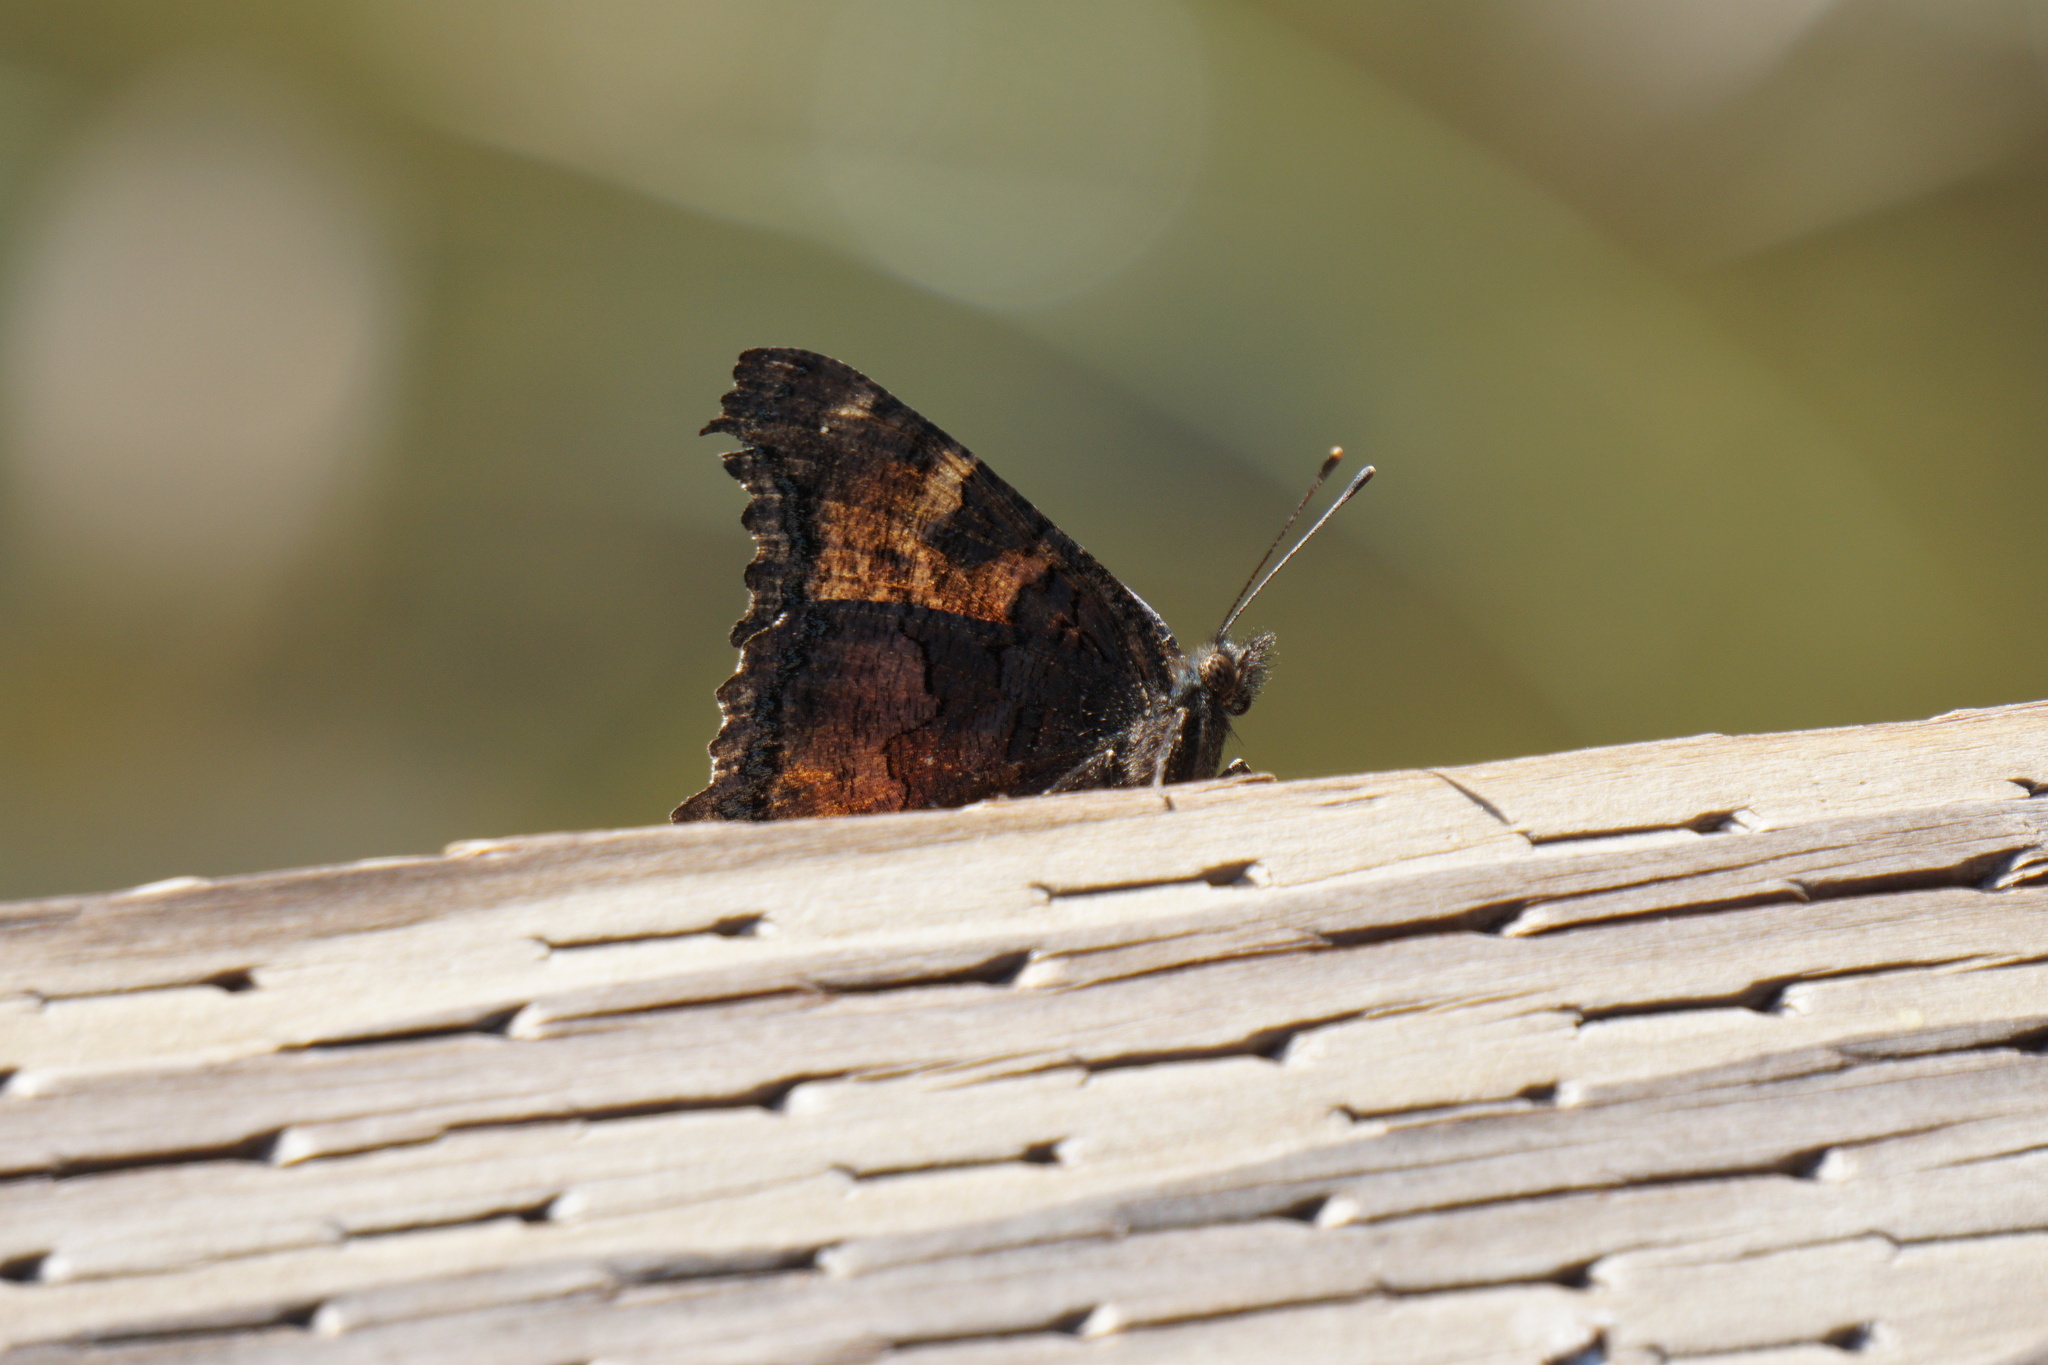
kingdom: Animalia
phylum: Arthropoda
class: Insecta
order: Lepidoptera
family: Nymphalidae
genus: Nymphalis
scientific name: Nymphalis californica
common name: California tortoiseshell
